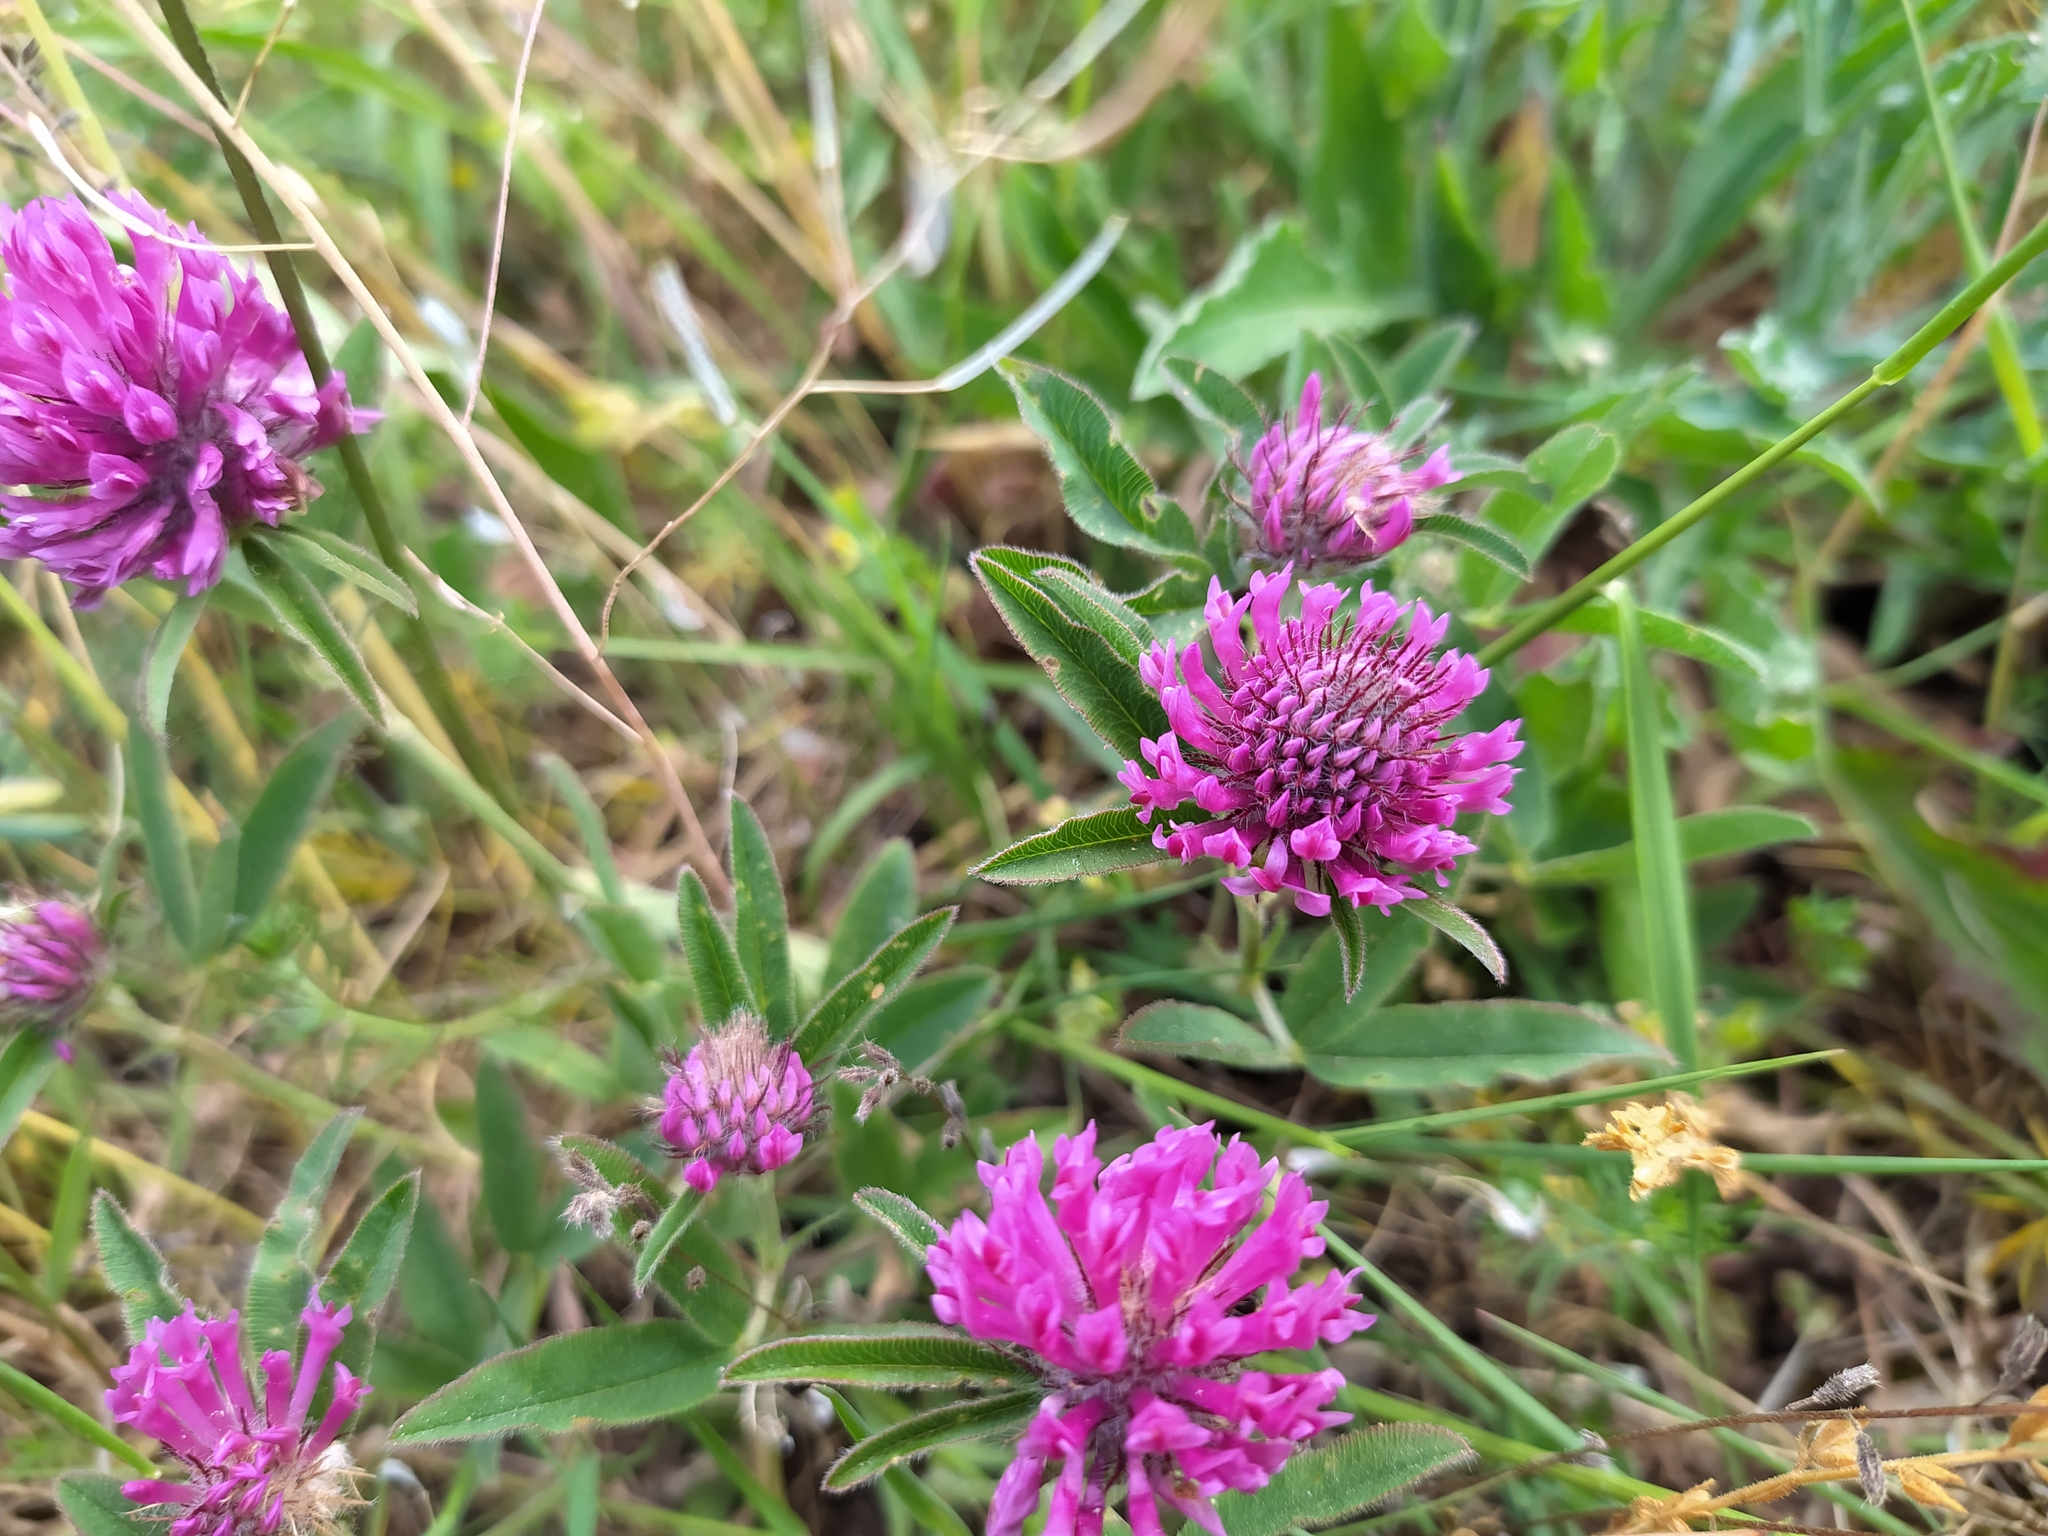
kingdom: Plantae
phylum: Tracheophyta
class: Magnoliopsida
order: Fabales
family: Fabaceae
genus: Trifolium
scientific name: Trifolium alpestre
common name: Owl-head clover
